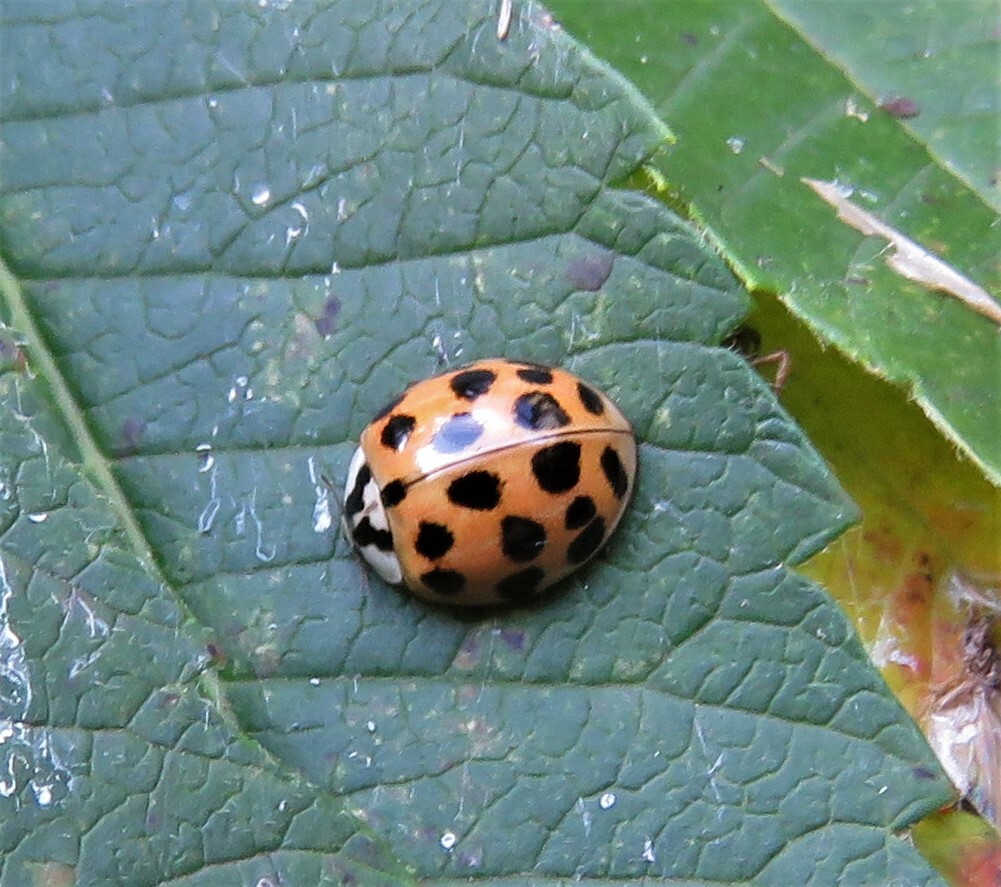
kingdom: Animalia
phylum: Arthropoda
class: Insecta
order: Coleoptera
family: Coccinellidae
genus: Harmonia
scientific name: Harmonia axyridis
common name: Harlequin ladybird
